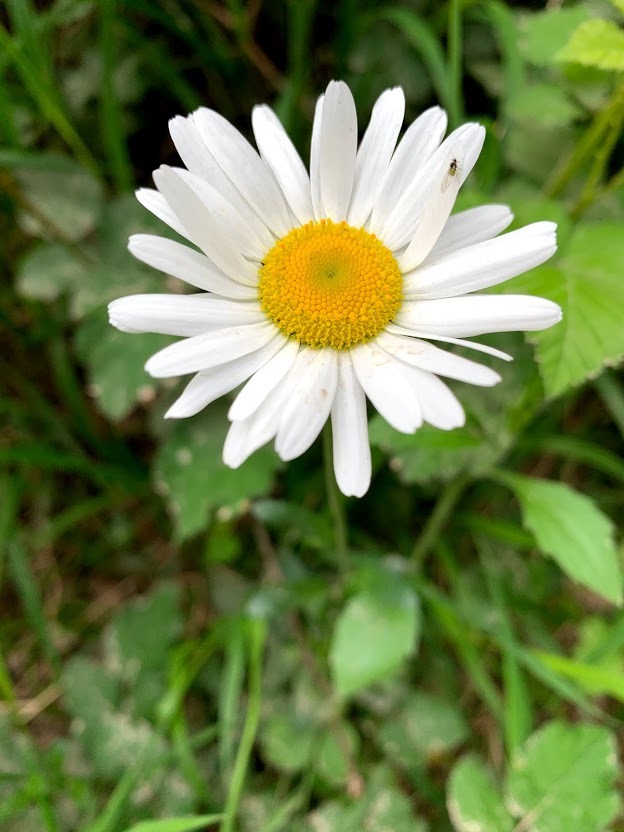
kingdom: Plantae
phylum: Tracheophyta
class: Magnoliopsida
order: Asterales
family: Asteraceae
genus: Leucanthemum
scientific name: Leucanthemum vulgare
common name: Oxeye daisy
